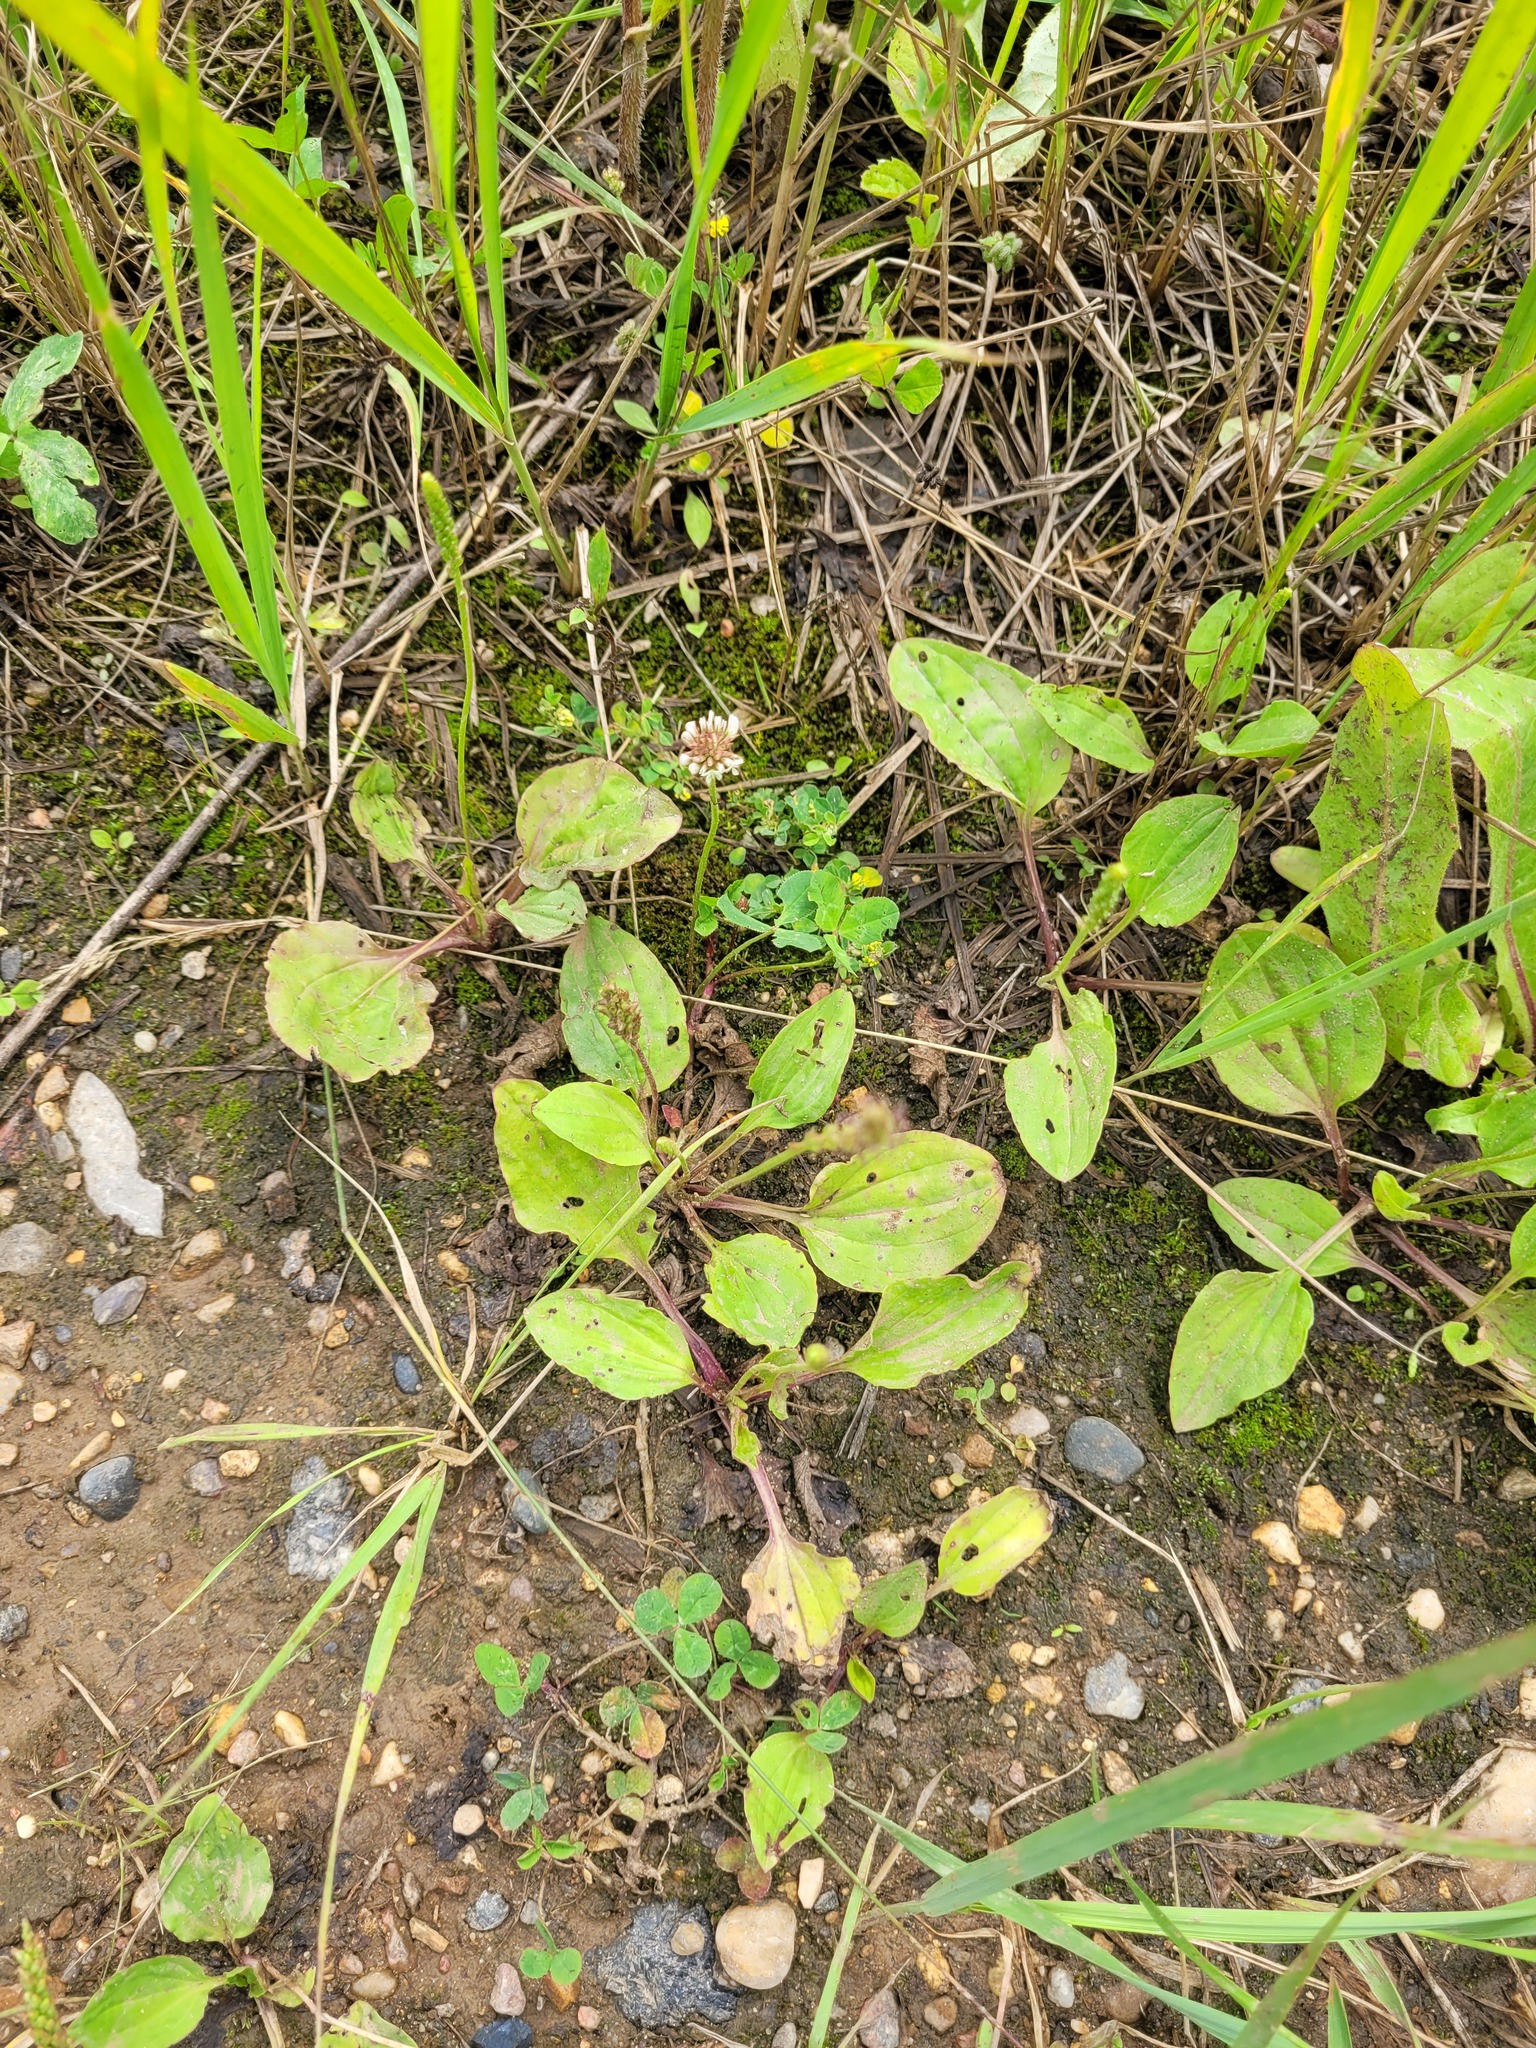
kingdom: Plantae
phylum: Tracheophyta
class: Magnoliopsida
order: Lamiales
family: Plantaginaceae
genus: Plantago
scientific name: Plantago uliginosa
